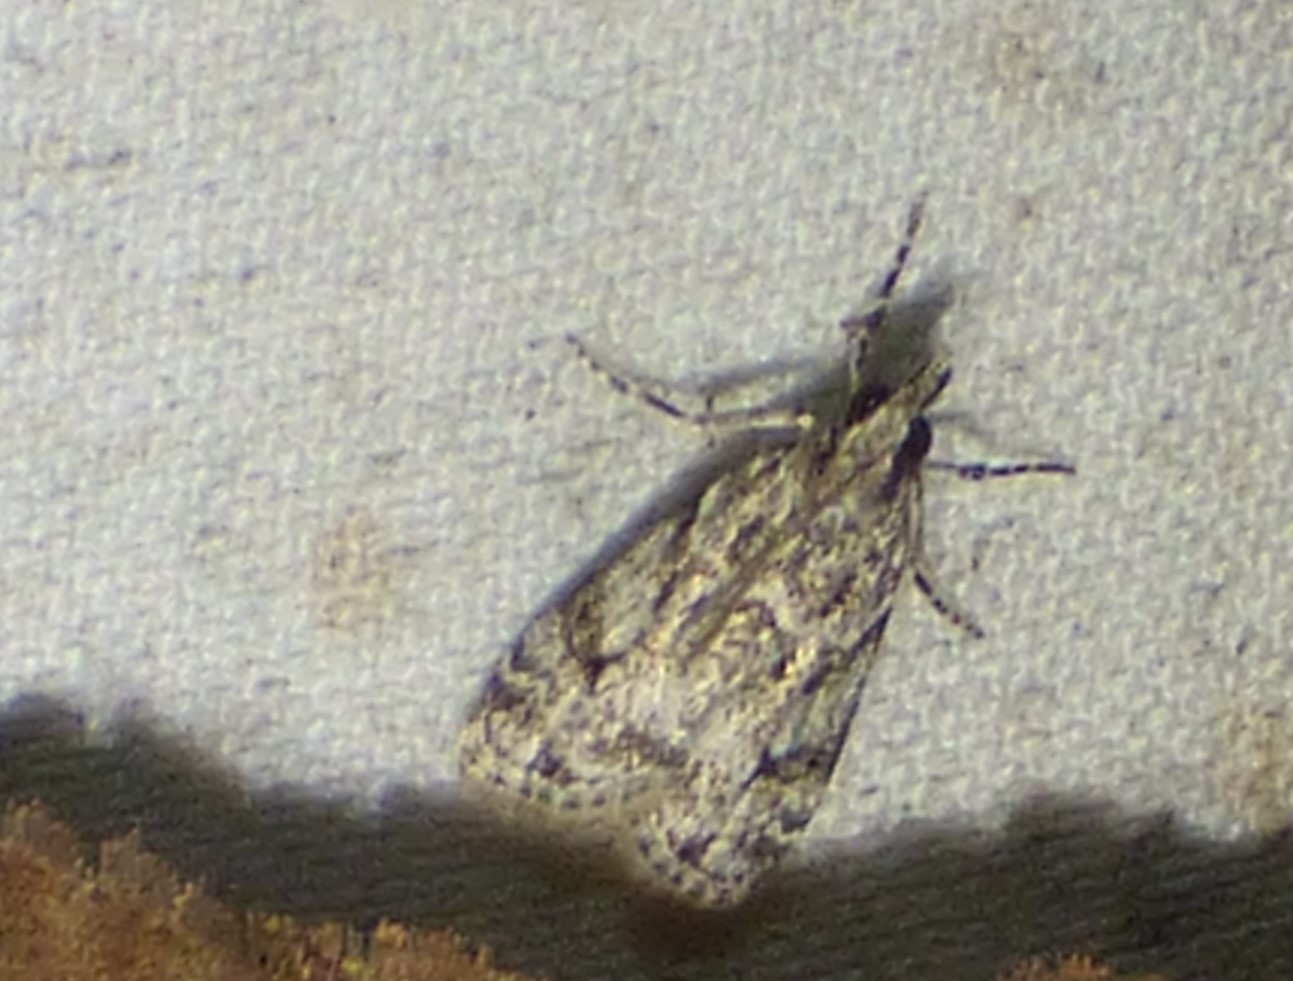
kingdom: Animalia
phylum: Arthropoda
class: Insecta
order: Lepidoptera
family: Crambidae
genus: Eudonia
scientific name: Eudonia heterosalis
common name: Mcdunnough's eudonia
